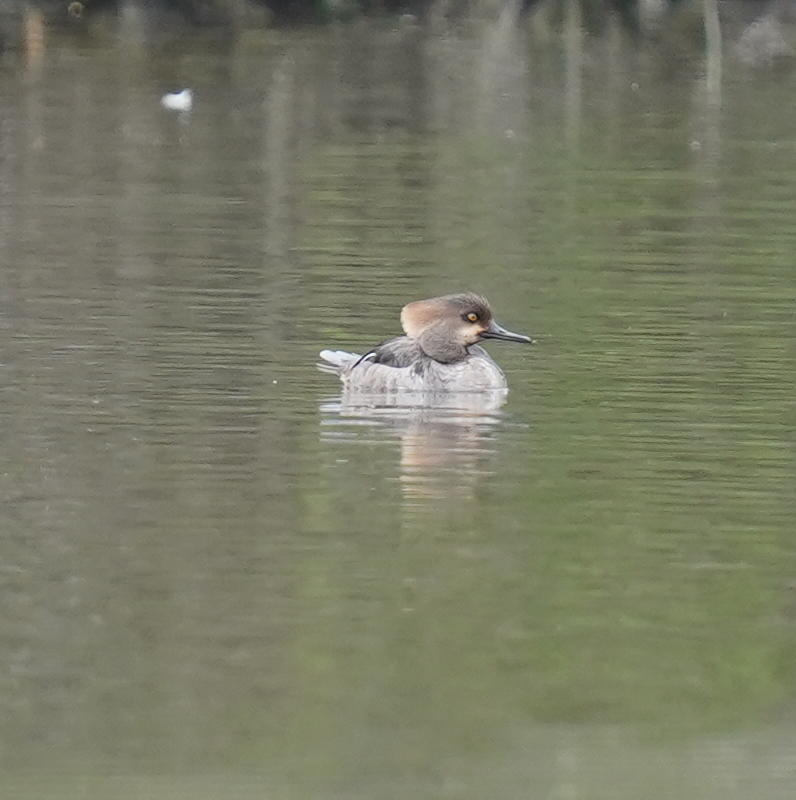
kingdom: Animalia
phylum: Chordata
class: Aves
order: Anseriformes
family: Anatidae
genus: Lophodytes
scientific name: Lophodytes cucullatus
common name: Hooded merganser
